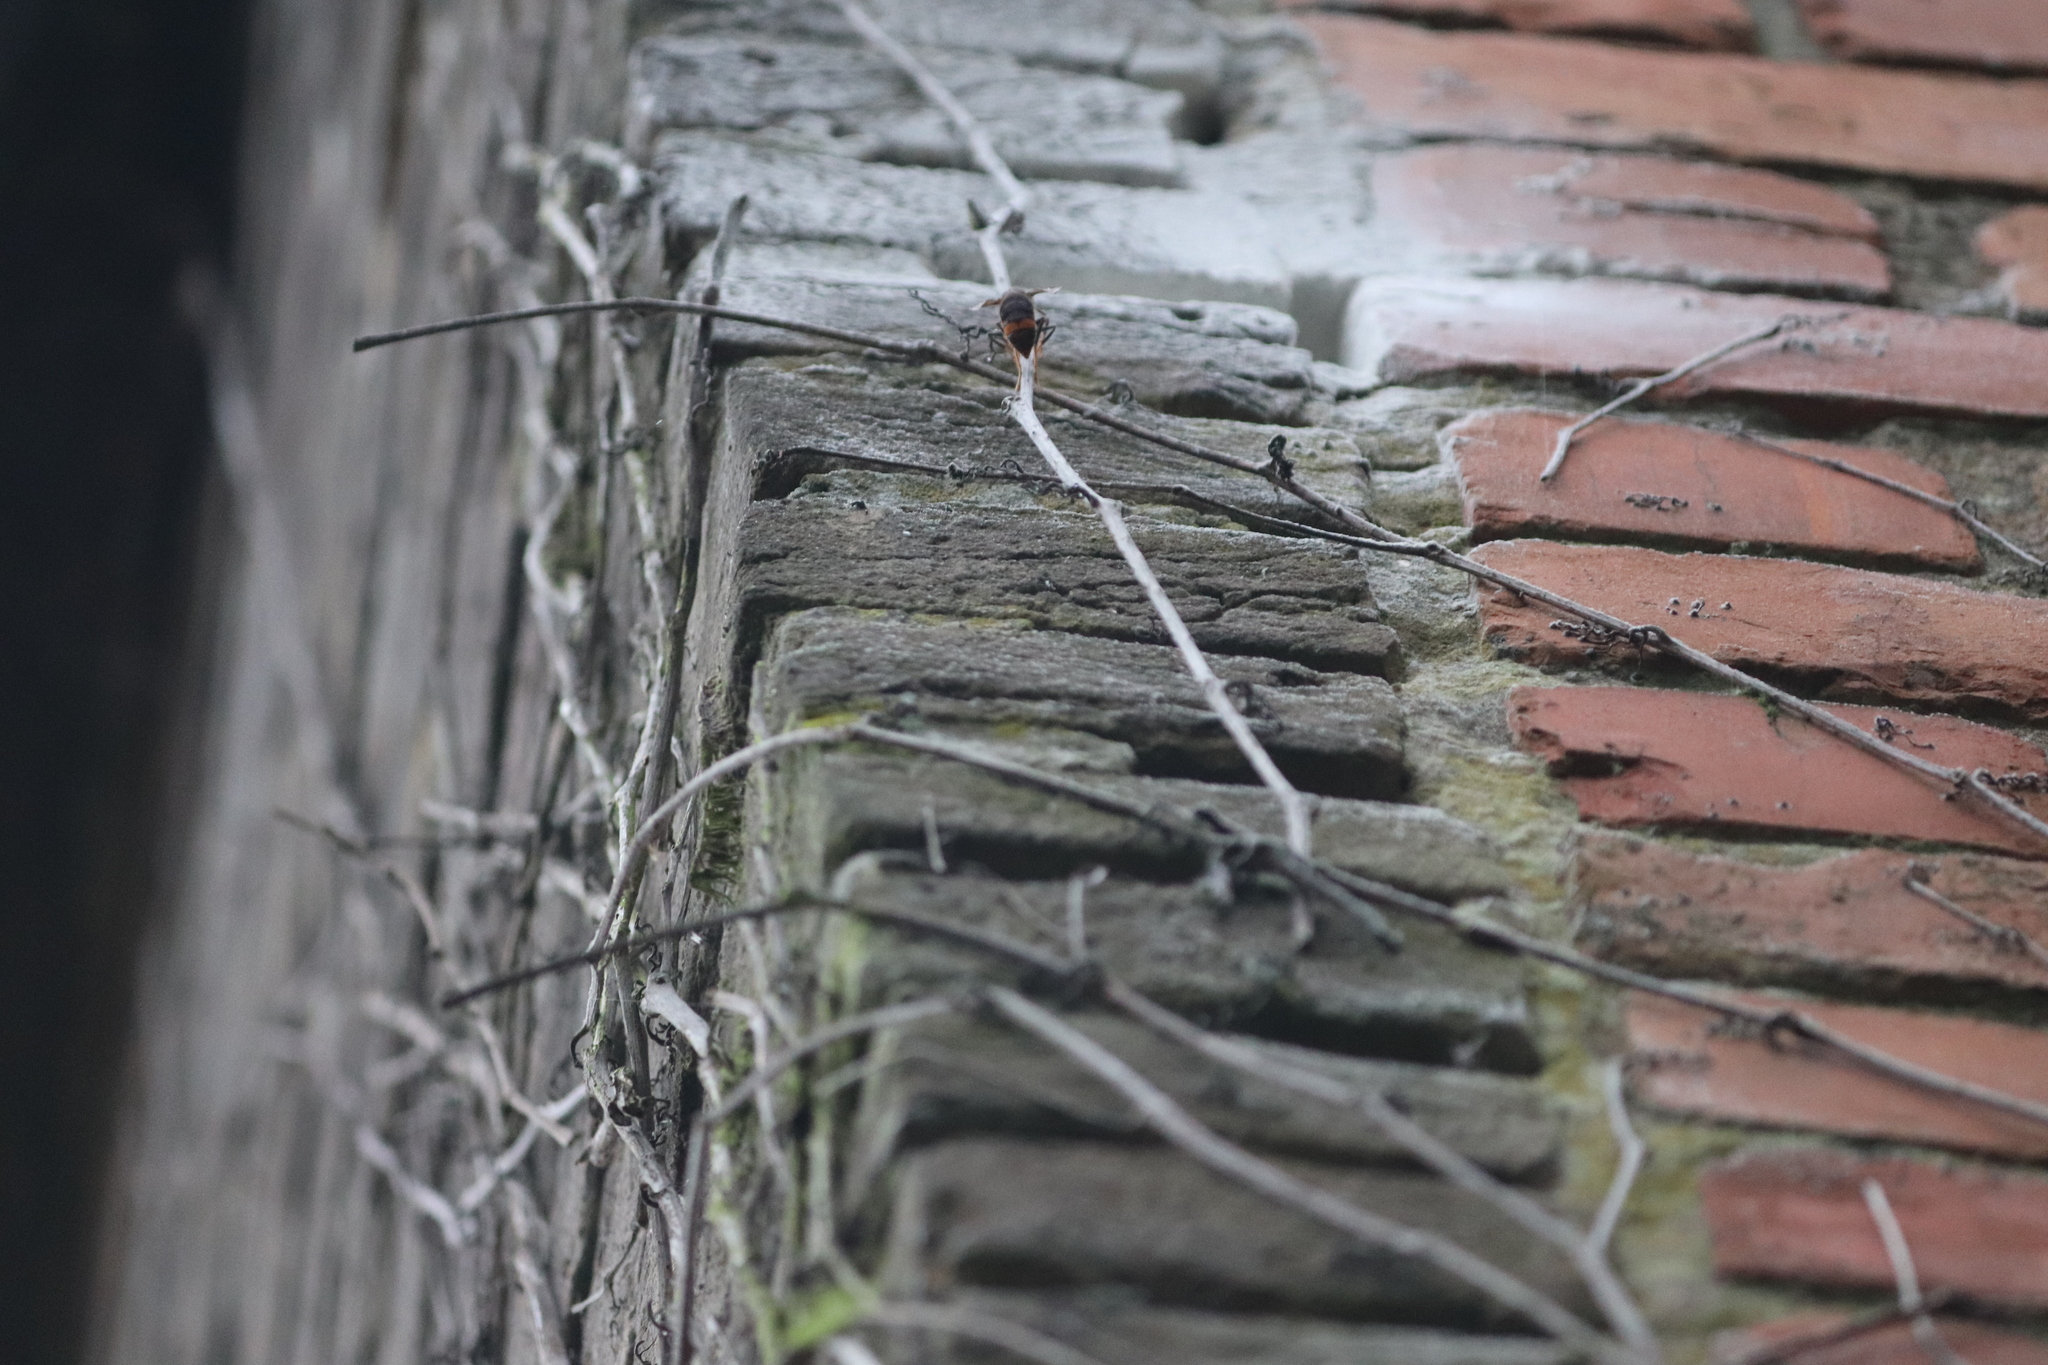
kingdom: Animalia
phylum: Arthropoda
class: Insecta
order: Hymenoptera
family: Vespidae
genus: Vespa
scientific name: Vespa velutina
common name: Asian hornet
